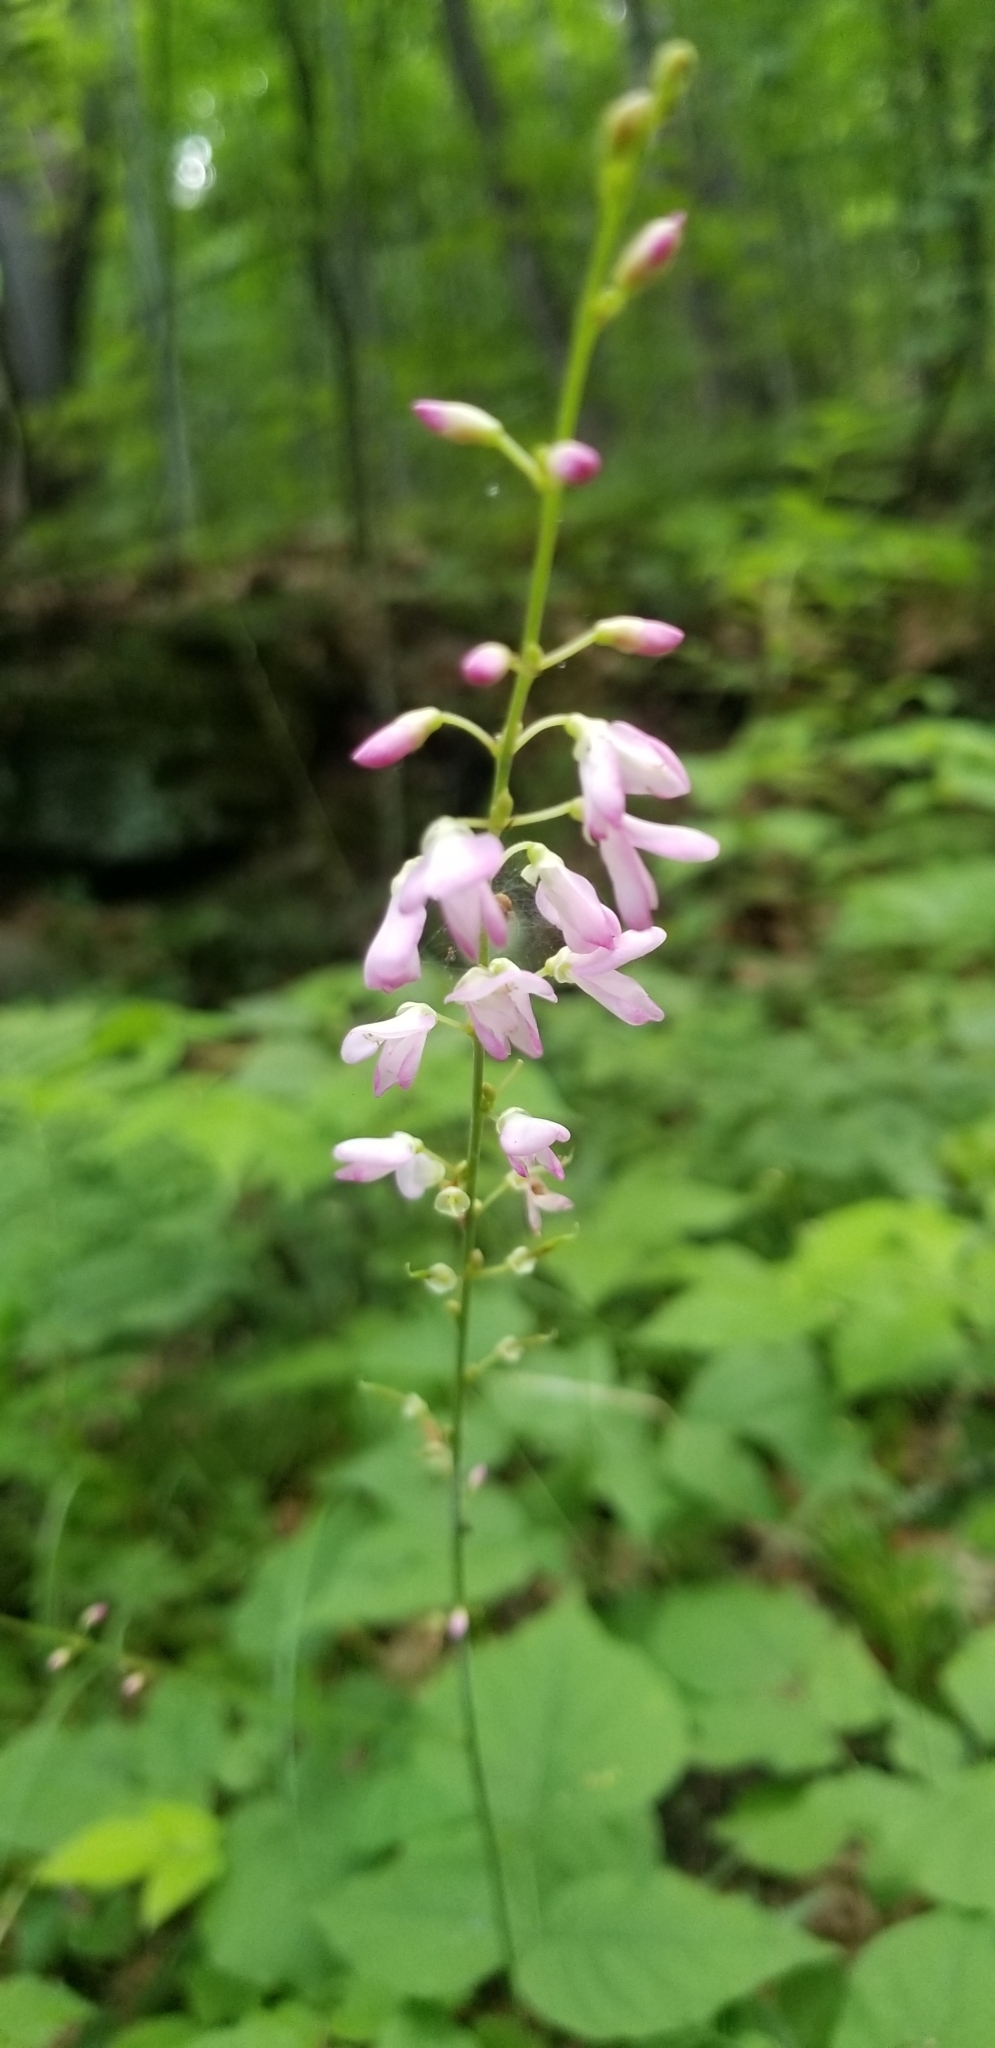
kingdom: Plantae
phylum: Tracheophyta
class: Magnoliopsida
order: Fabales
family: Fabaceae
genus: Hylodesmum
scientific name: Hylodesmum glutinosum
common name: Clustered-leaved tick-trefoil
